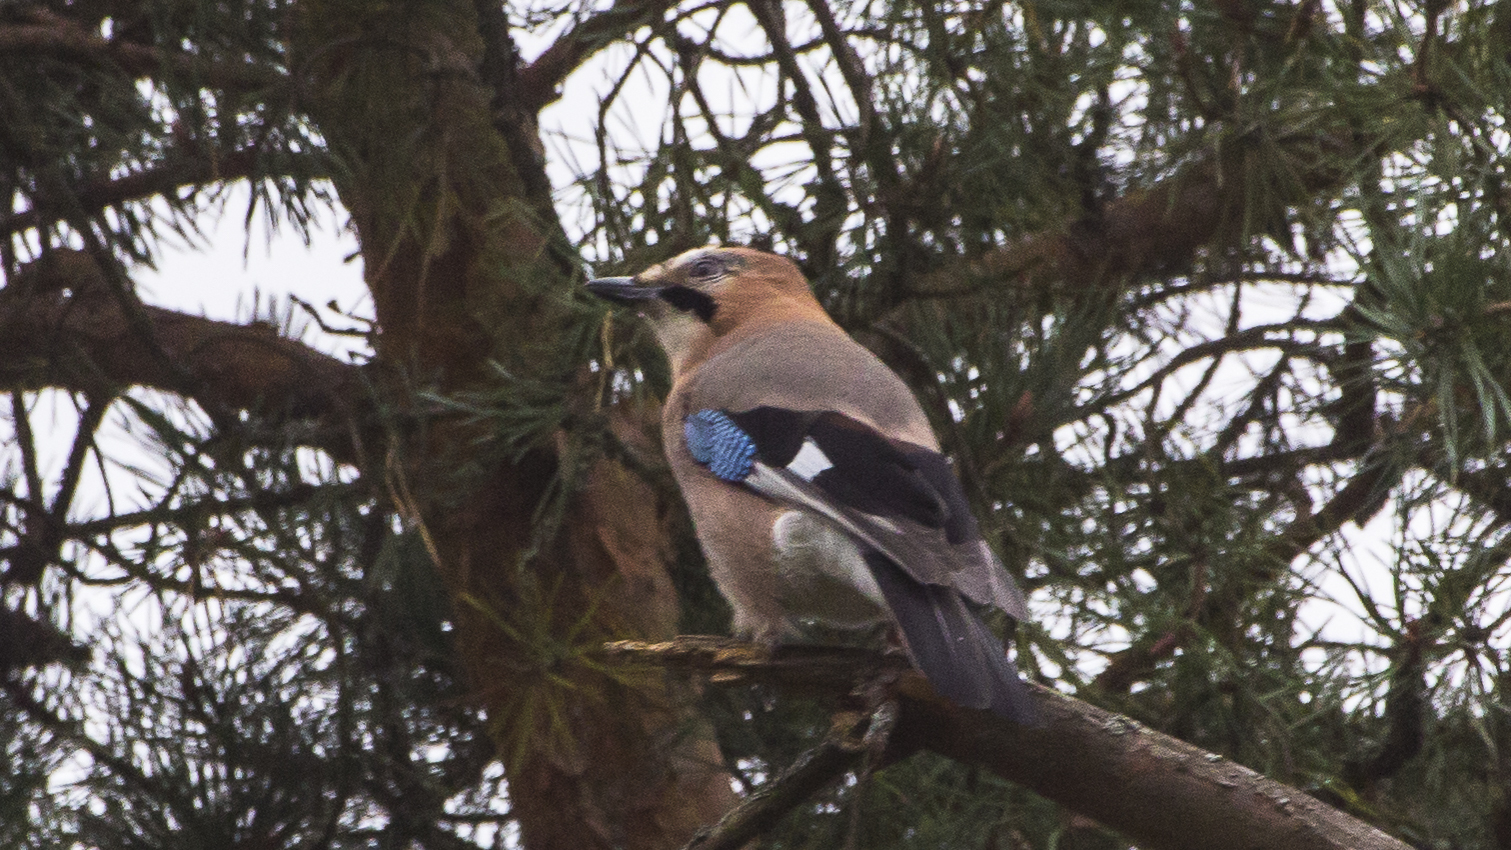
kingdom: Animalia
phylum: Chordata
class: Aves
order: Passeriformes
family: Corvidae
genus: Garrulus
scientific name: Garrulus glandarius
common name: Eurasian jay
